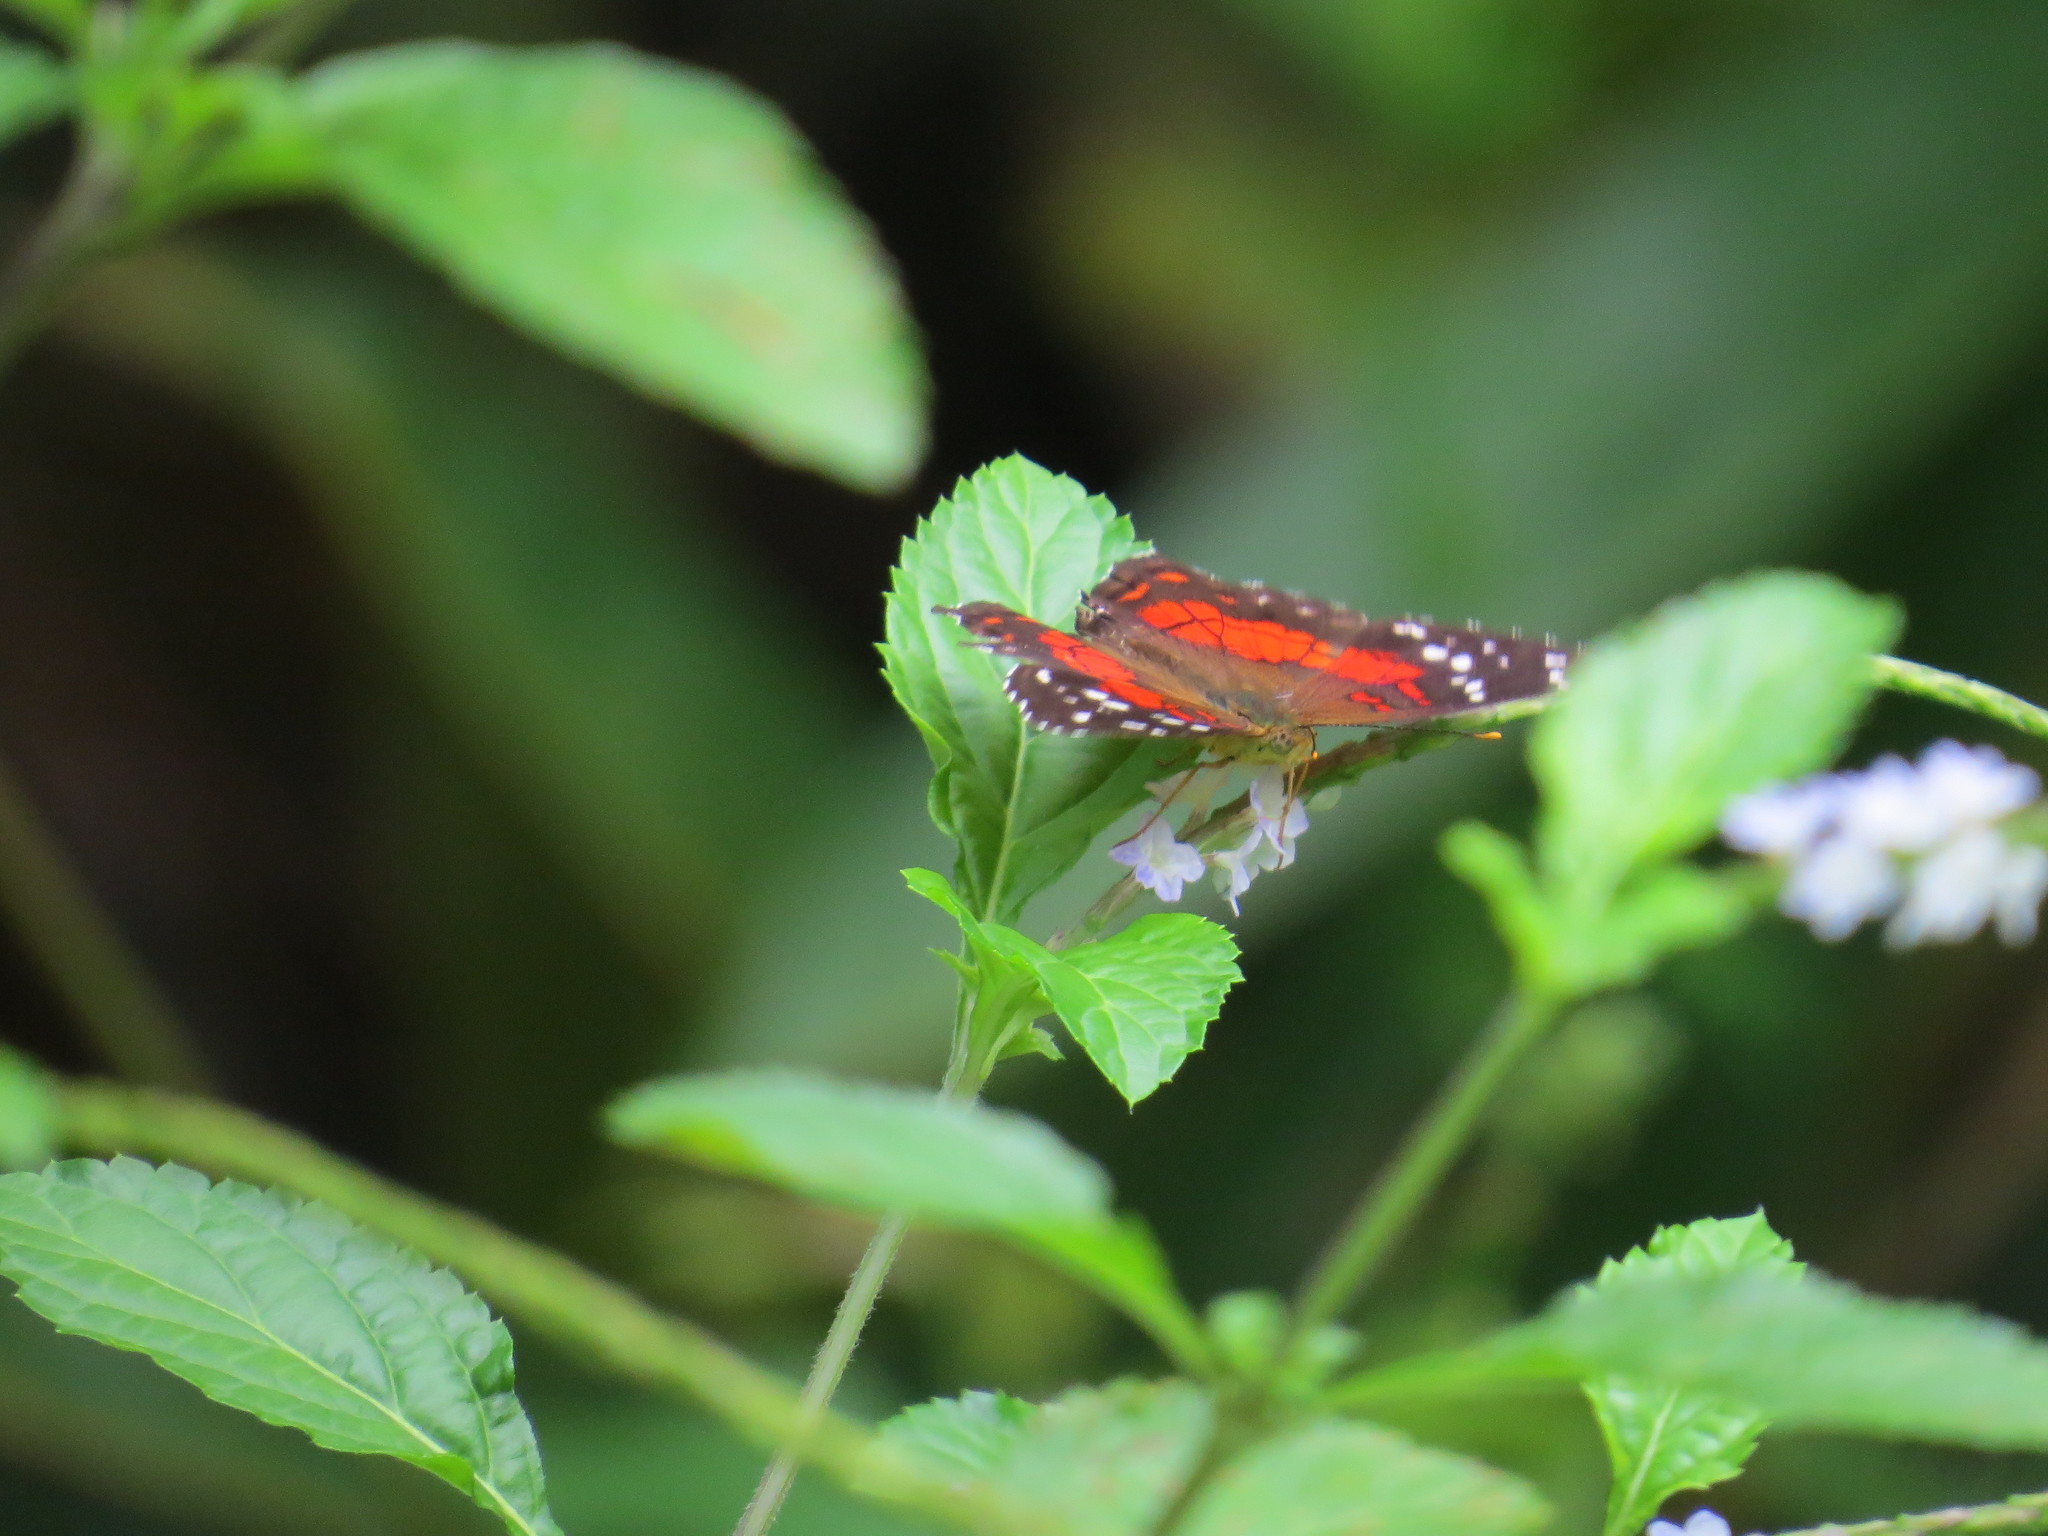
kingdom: Animalia
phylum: Arthropoda
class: Insecta
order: Lepidoptera
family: Nymphalidae
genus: Anartia
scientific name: Anartia amathea
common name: Red peacock
